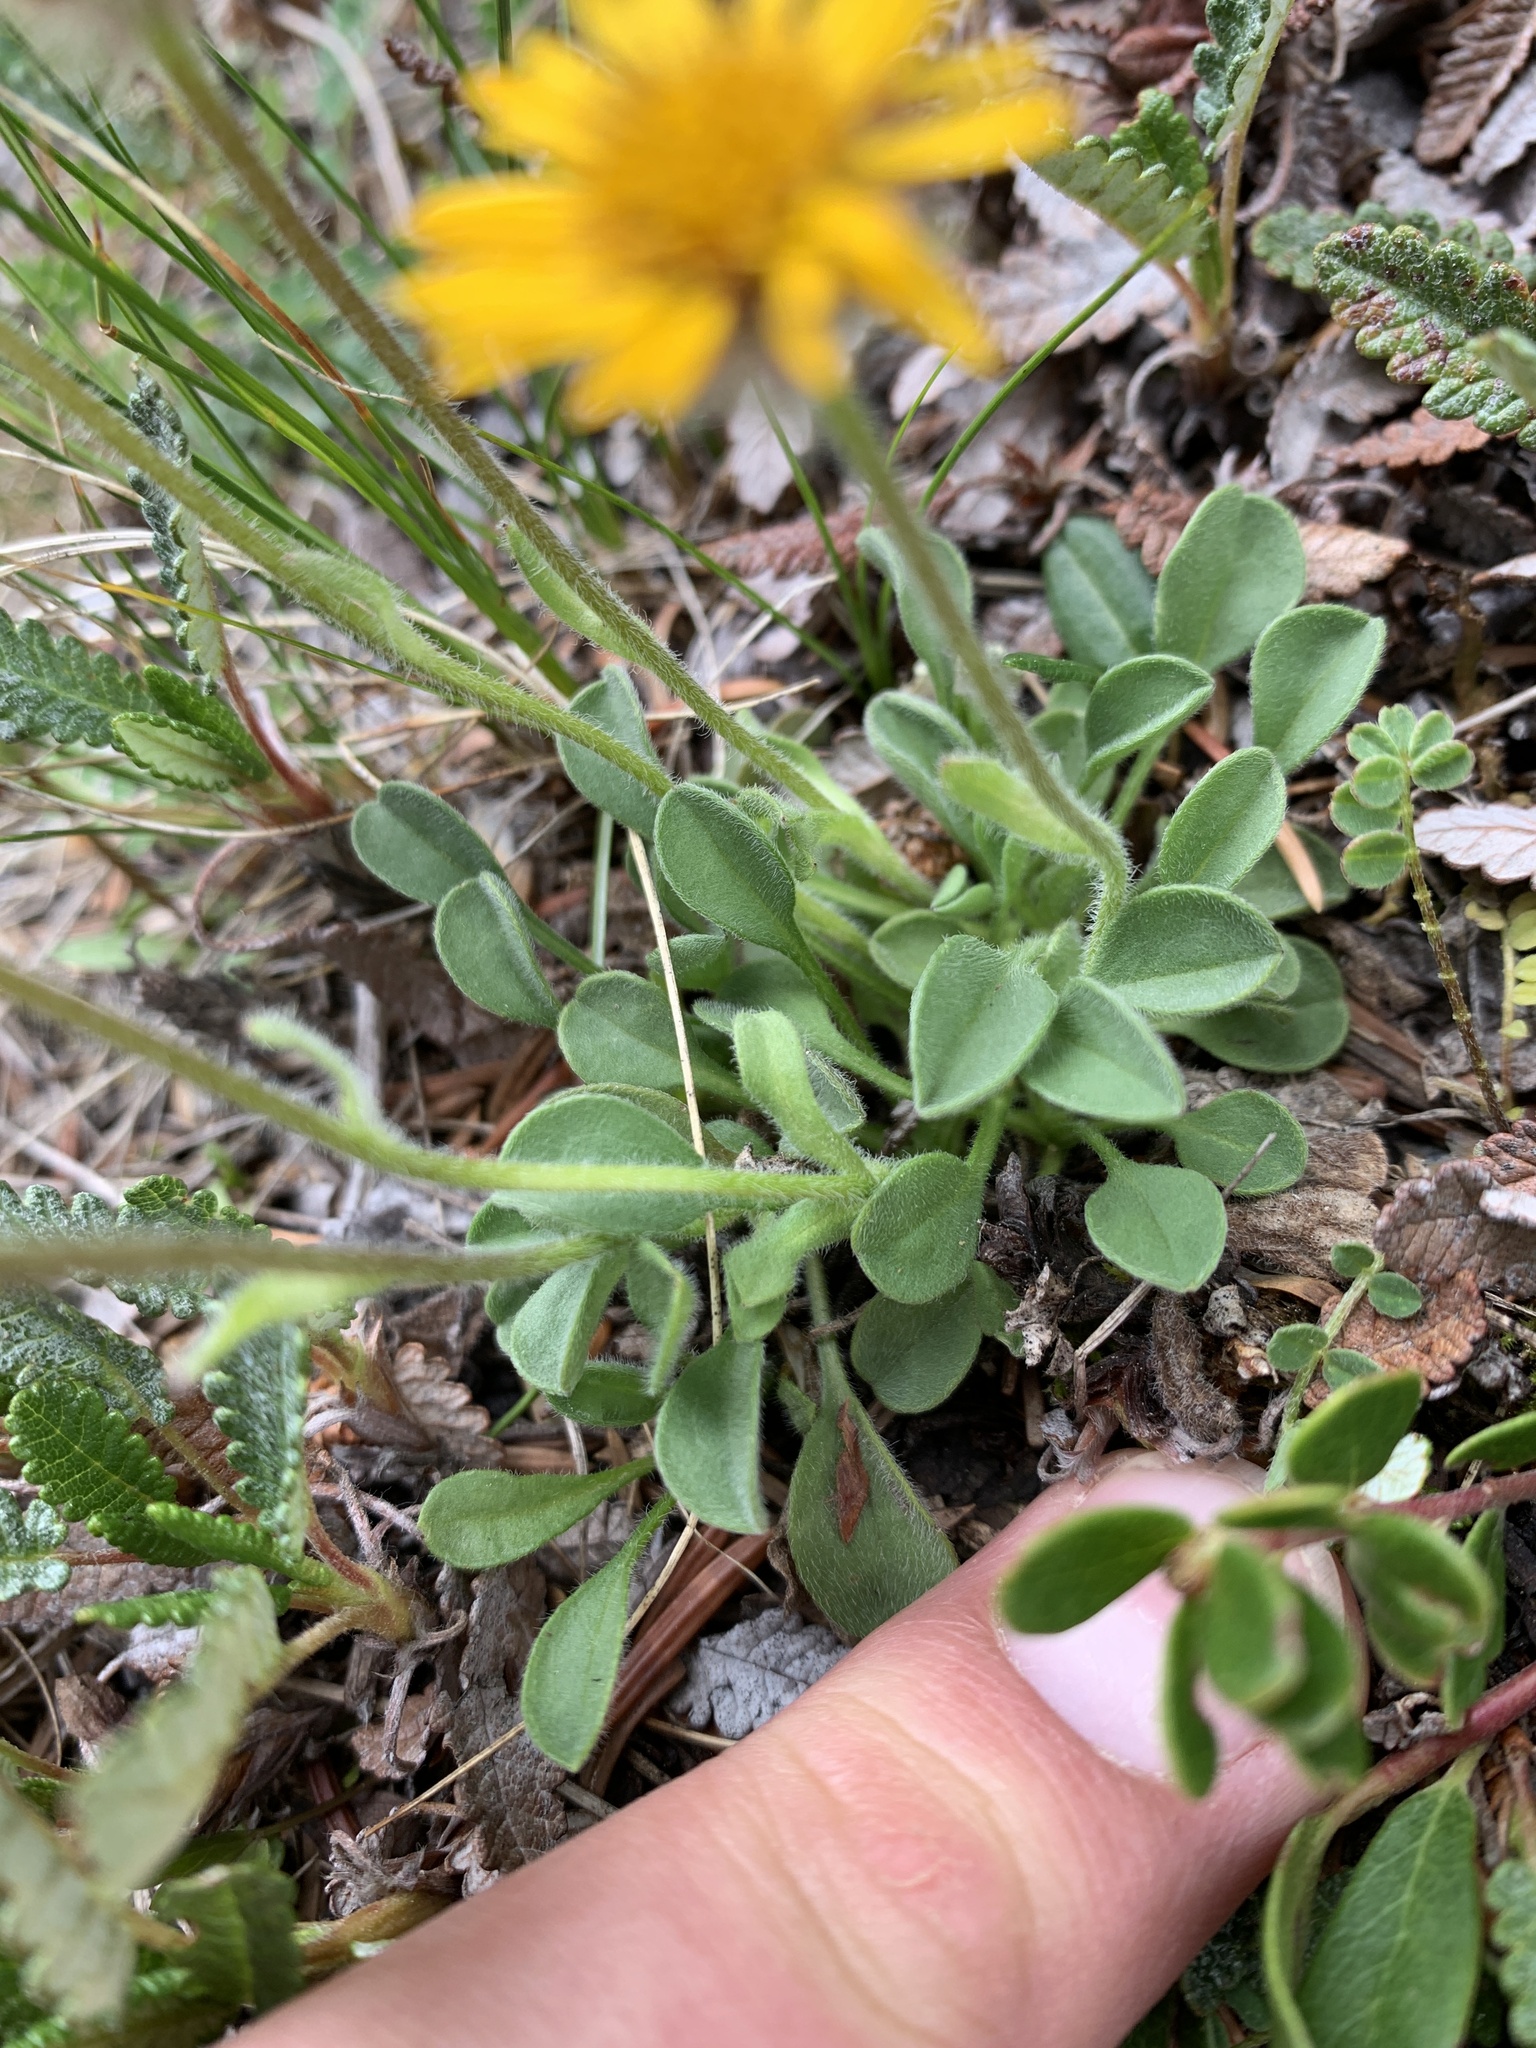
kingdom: Plantae
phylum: Tracheophyta
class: Magnoliopsida
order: Asterales
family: Asteraceae
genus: Erigeron
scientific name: Erigeron aureus
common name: Alpine yellow fleabane
